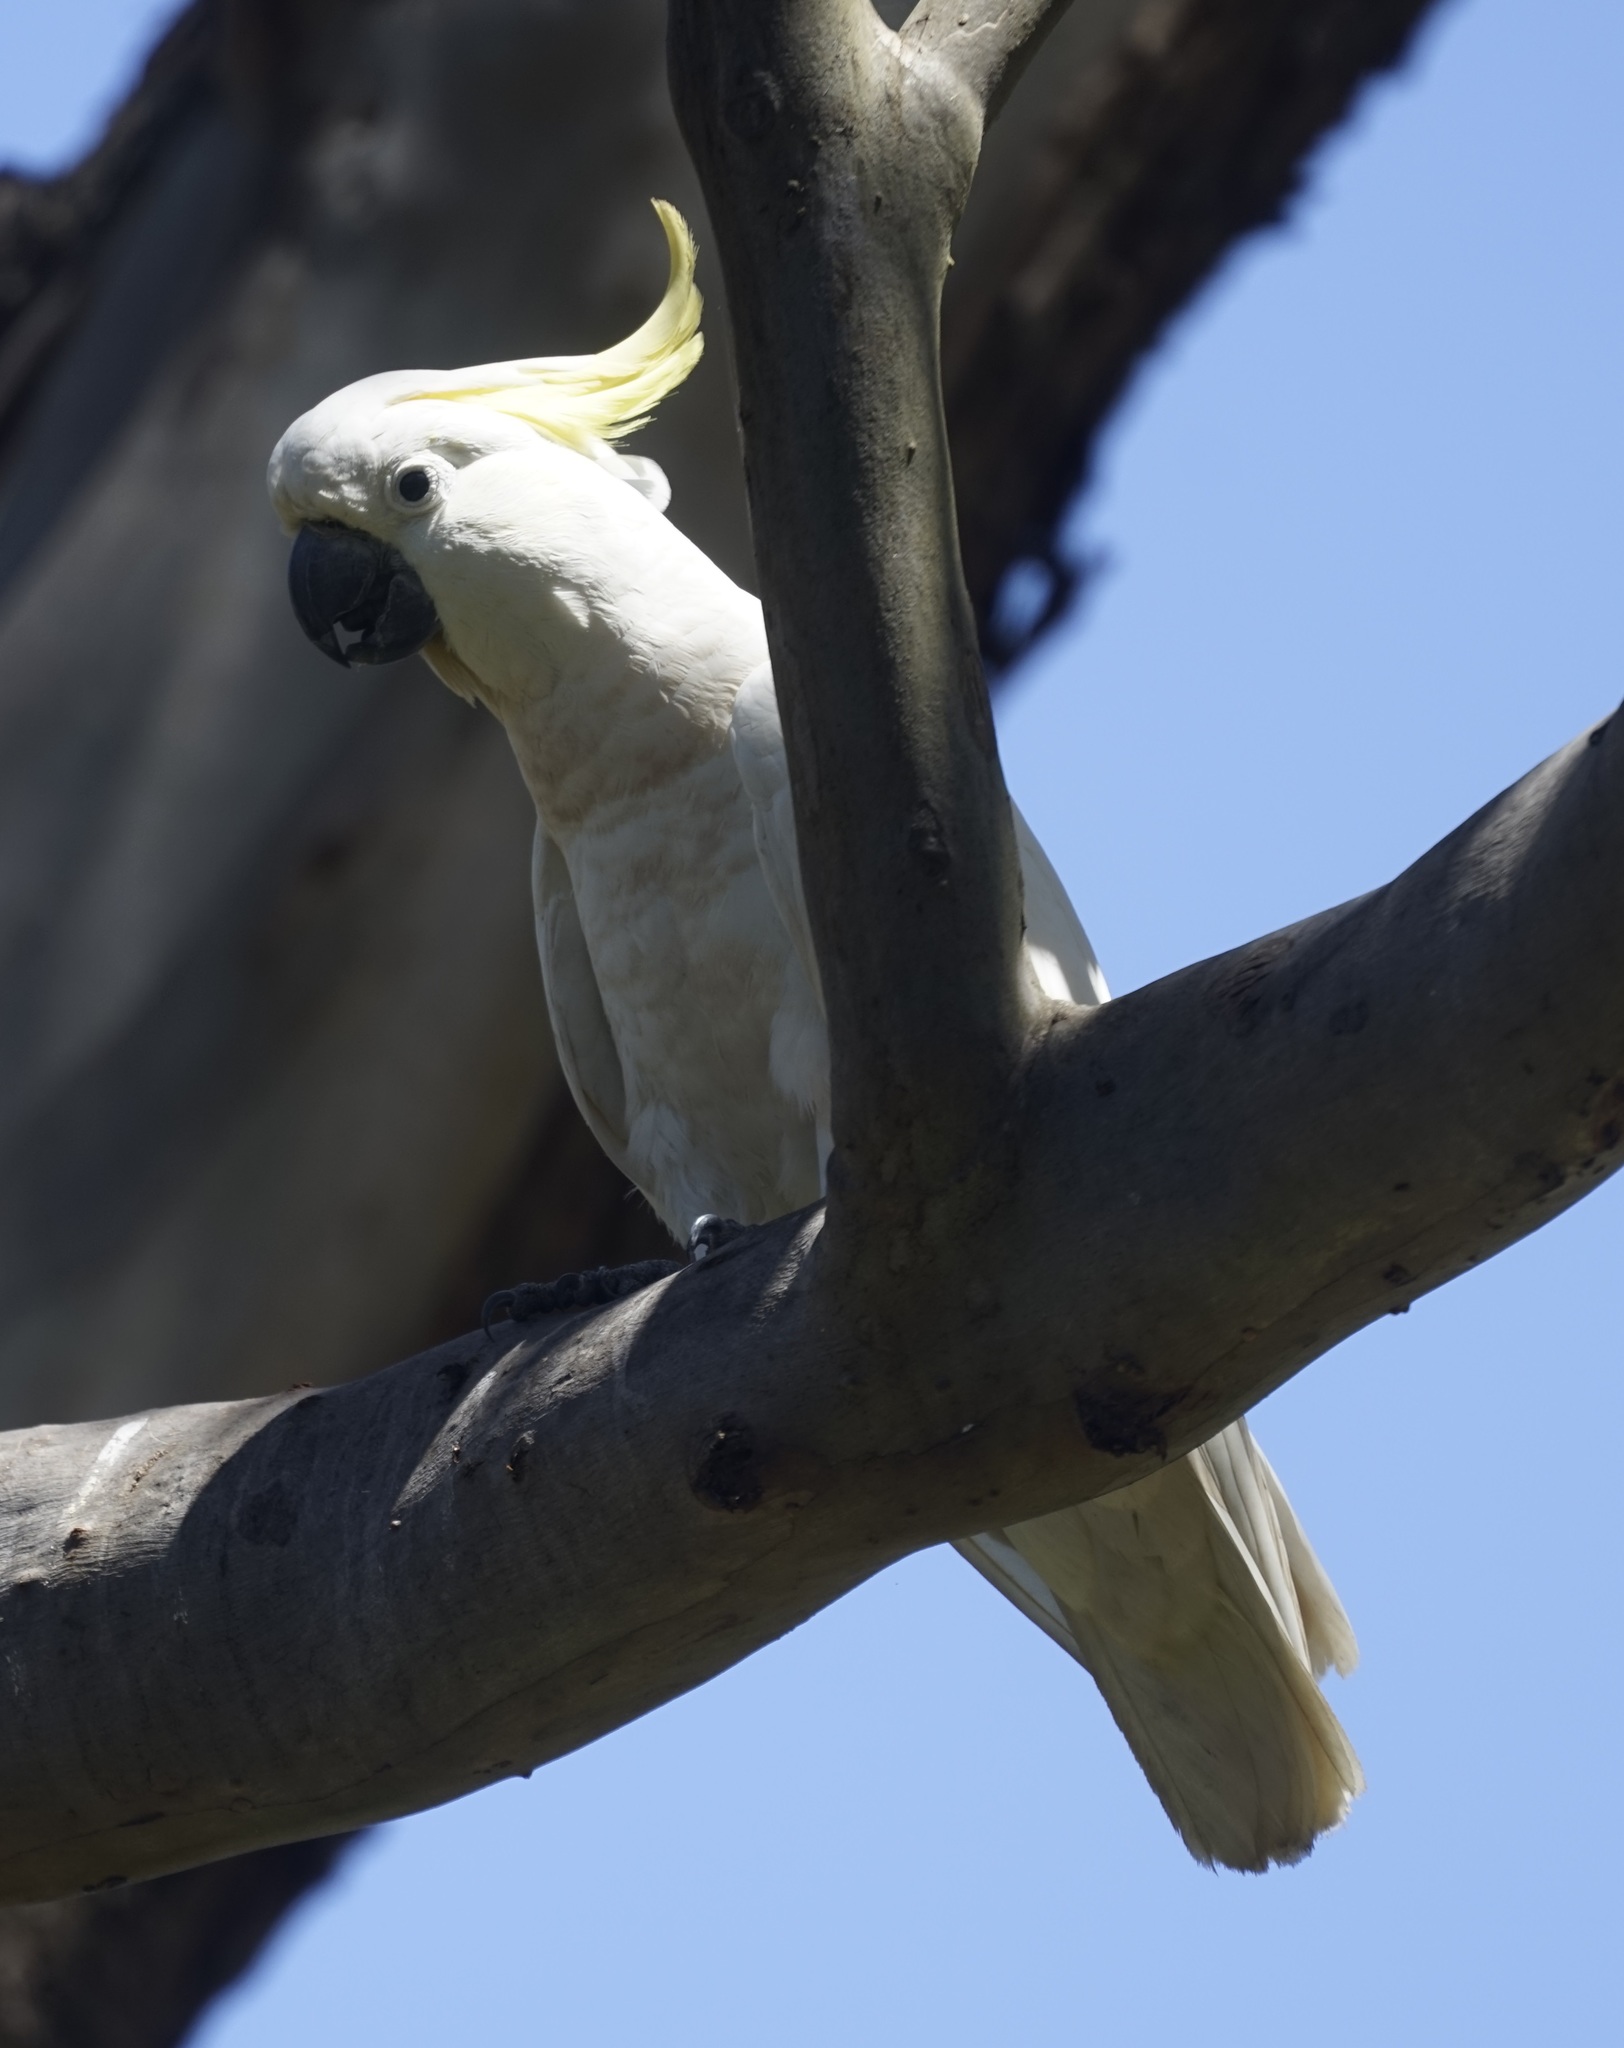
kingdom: Animalia
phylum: Chordata
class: Aves
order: Psittaciformes
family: Psittacidae
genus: Cacatua
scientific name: Cacatua galerita
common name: Sulphur-crested cockatoo
